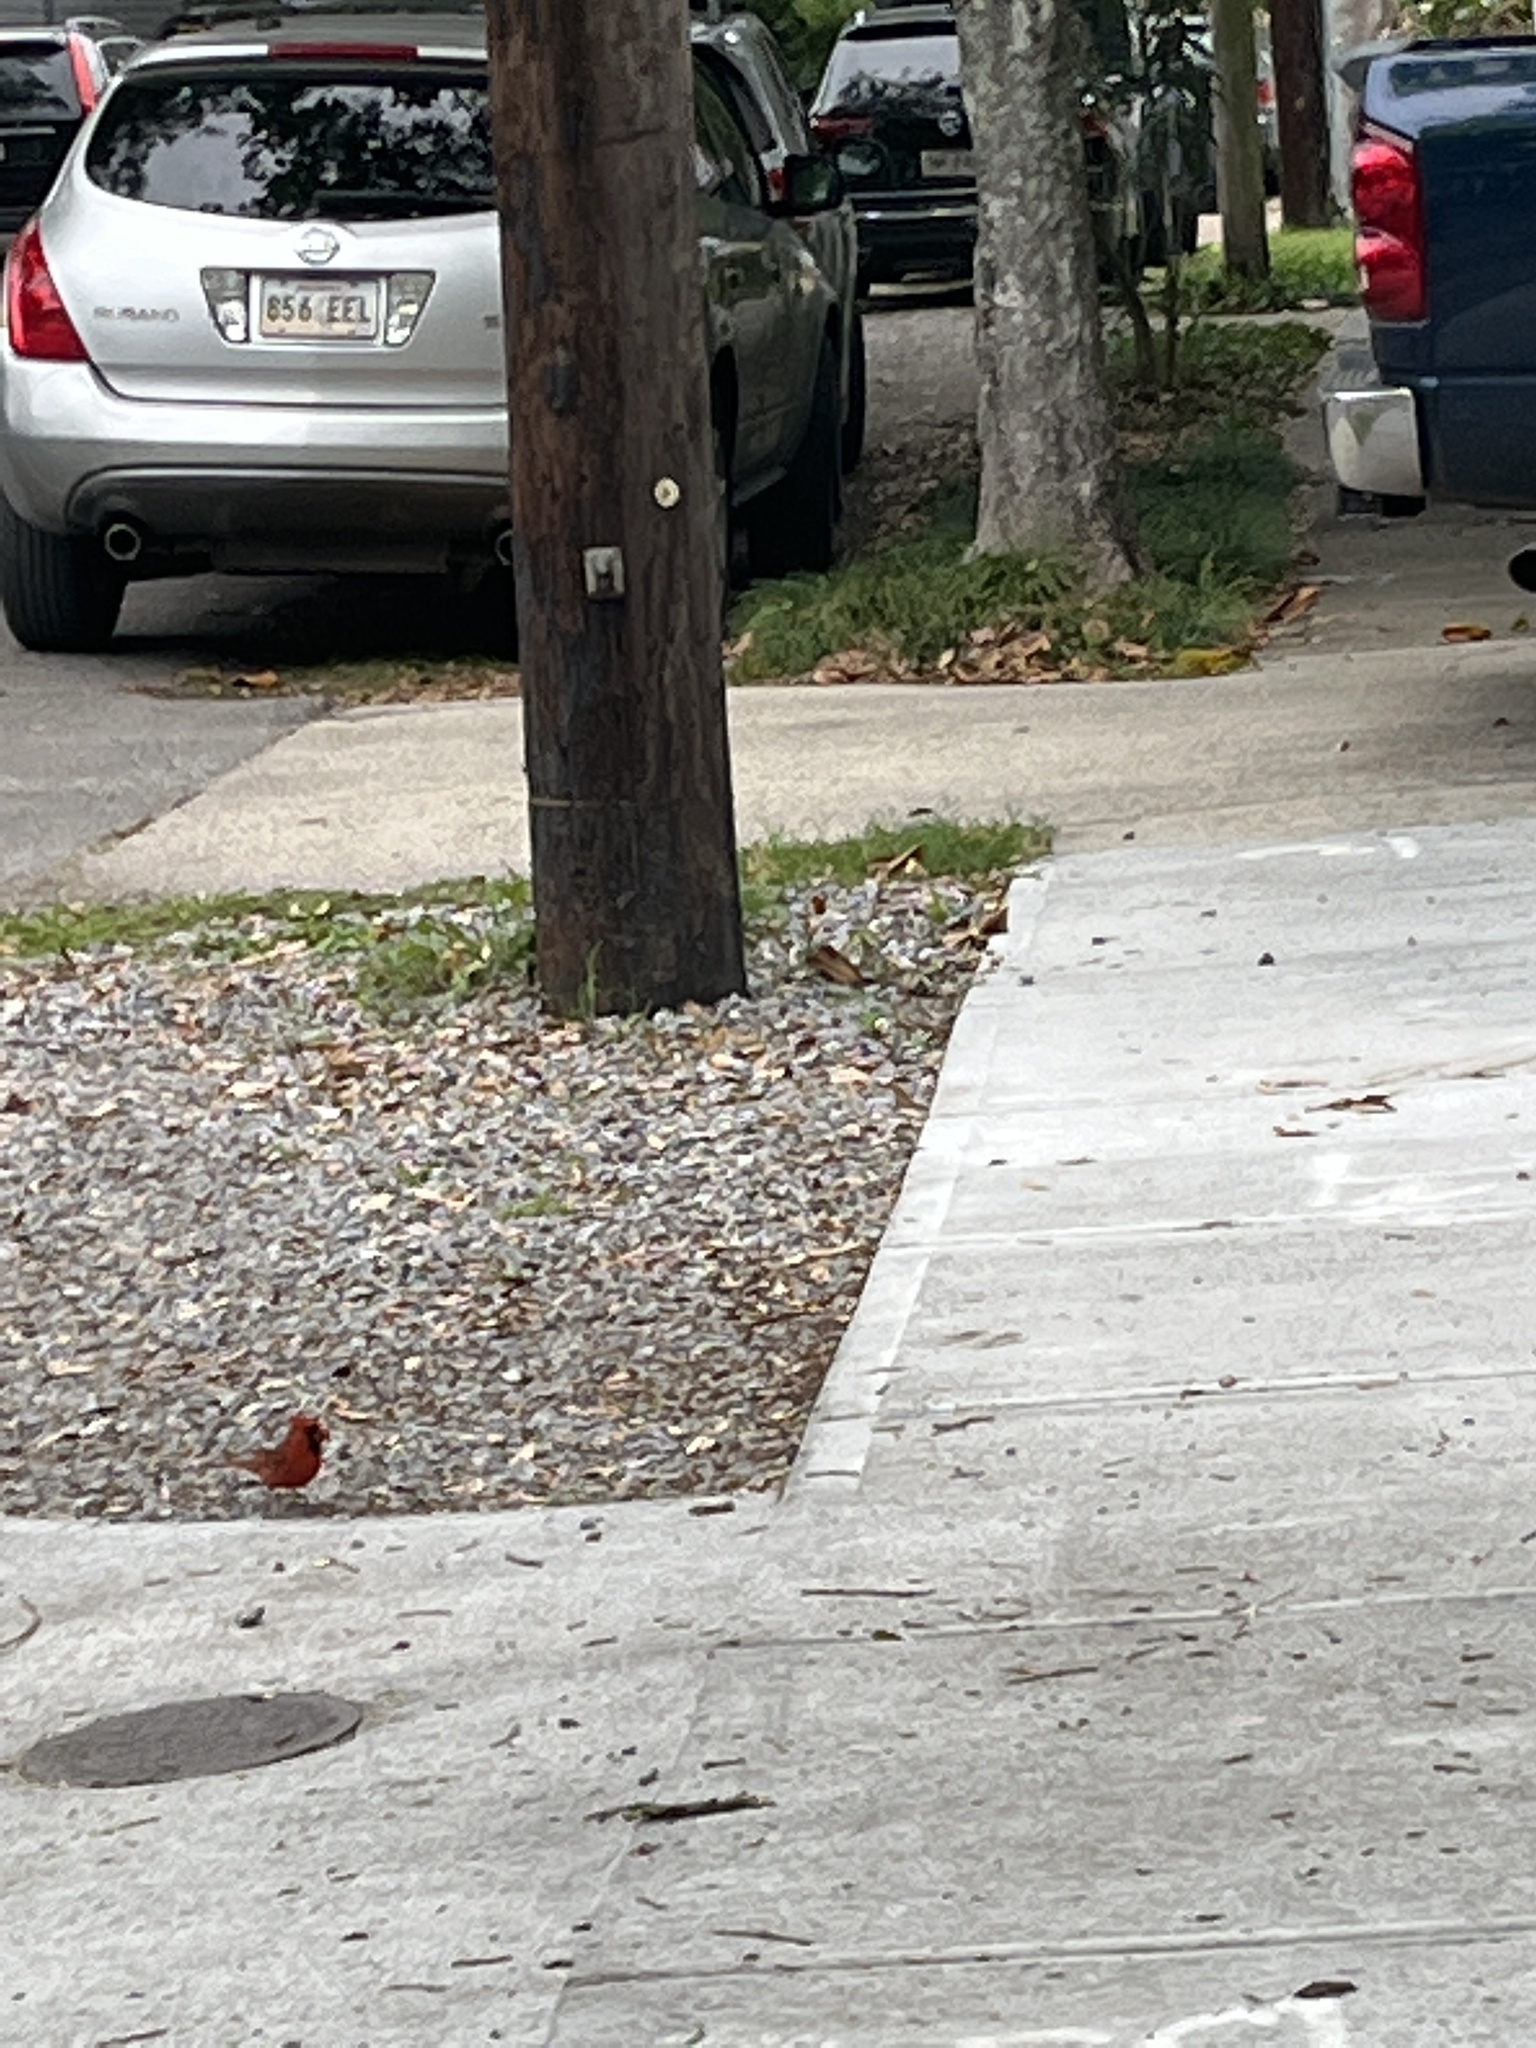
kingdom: Animalia
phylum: Chordata
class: Aves
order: Passeriformes
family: Cardinalidae
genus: Cardinalis
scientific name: Cardinalis cardinalis
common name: Northern cardinal
